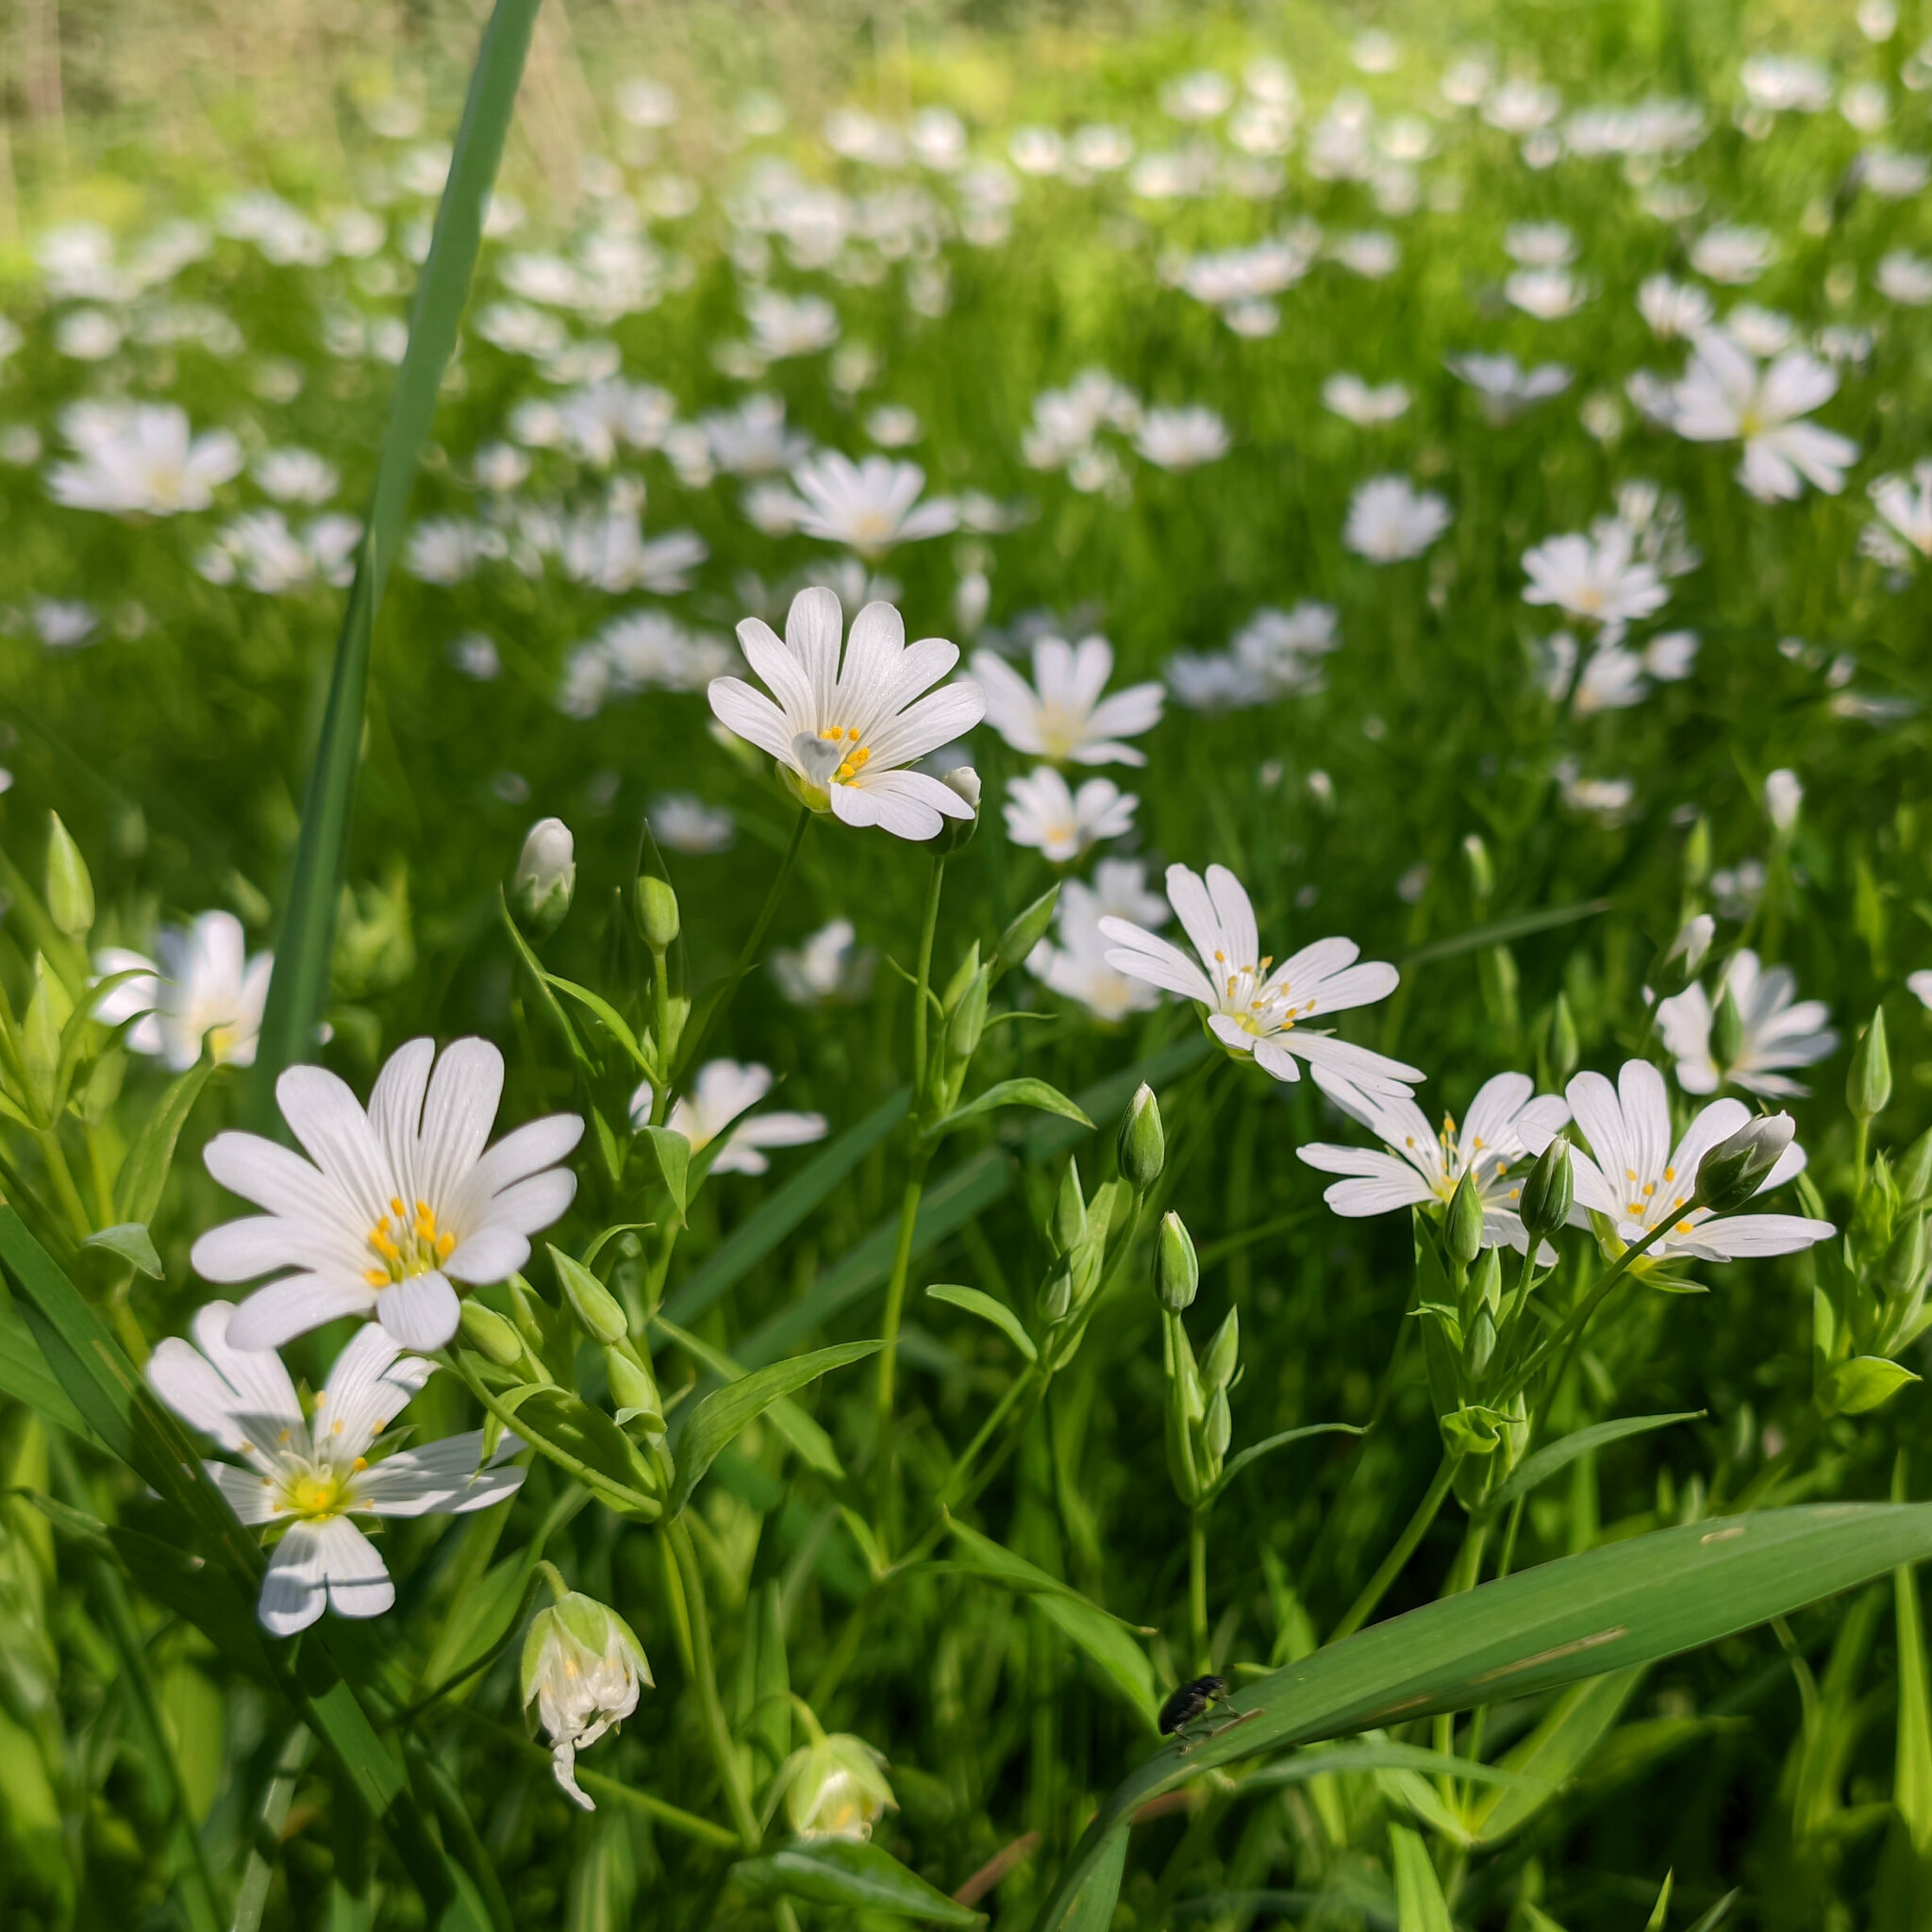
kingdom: Plantae
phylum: Tracheophyta
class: Magnoliopsida
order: Caryophyllales
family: Caryophyllaceae
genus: Rabelera
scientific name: Rabelera holostea
